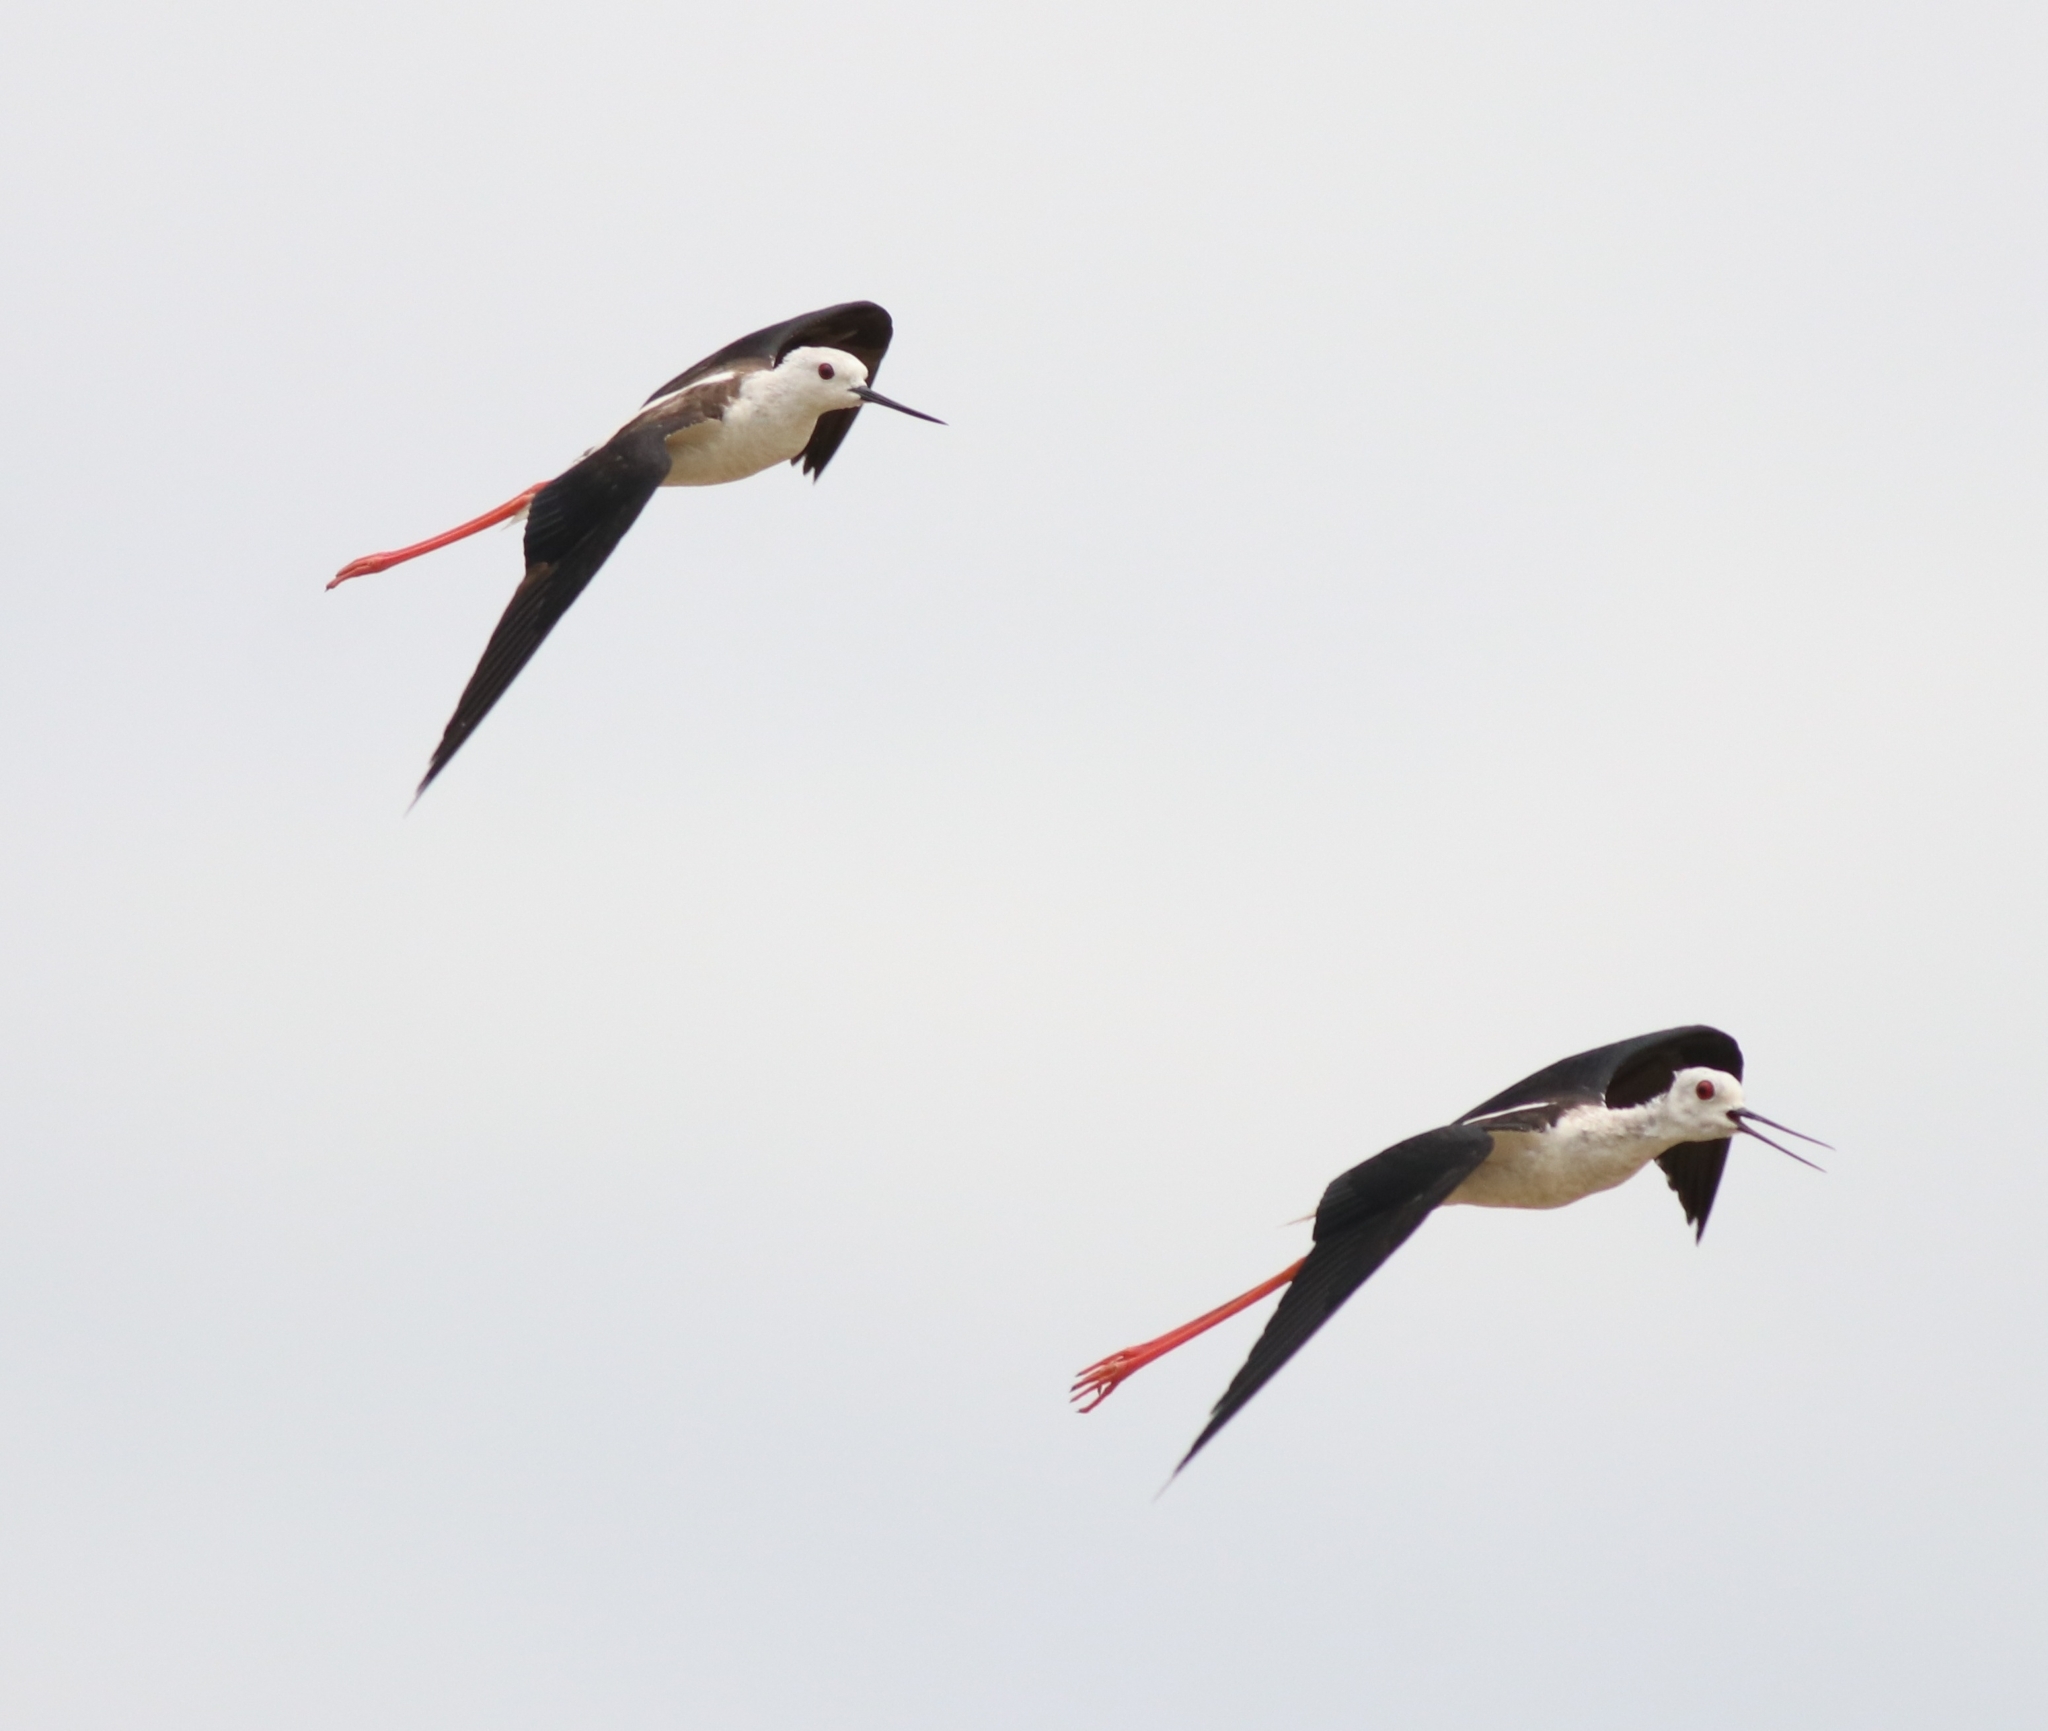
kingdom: Animalia
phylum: Chordata
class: Aves
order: Charadriiformes
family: Recurvirostridae
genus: Himantopus
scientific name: Himantopus himantopus
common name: Black-winged stilt
